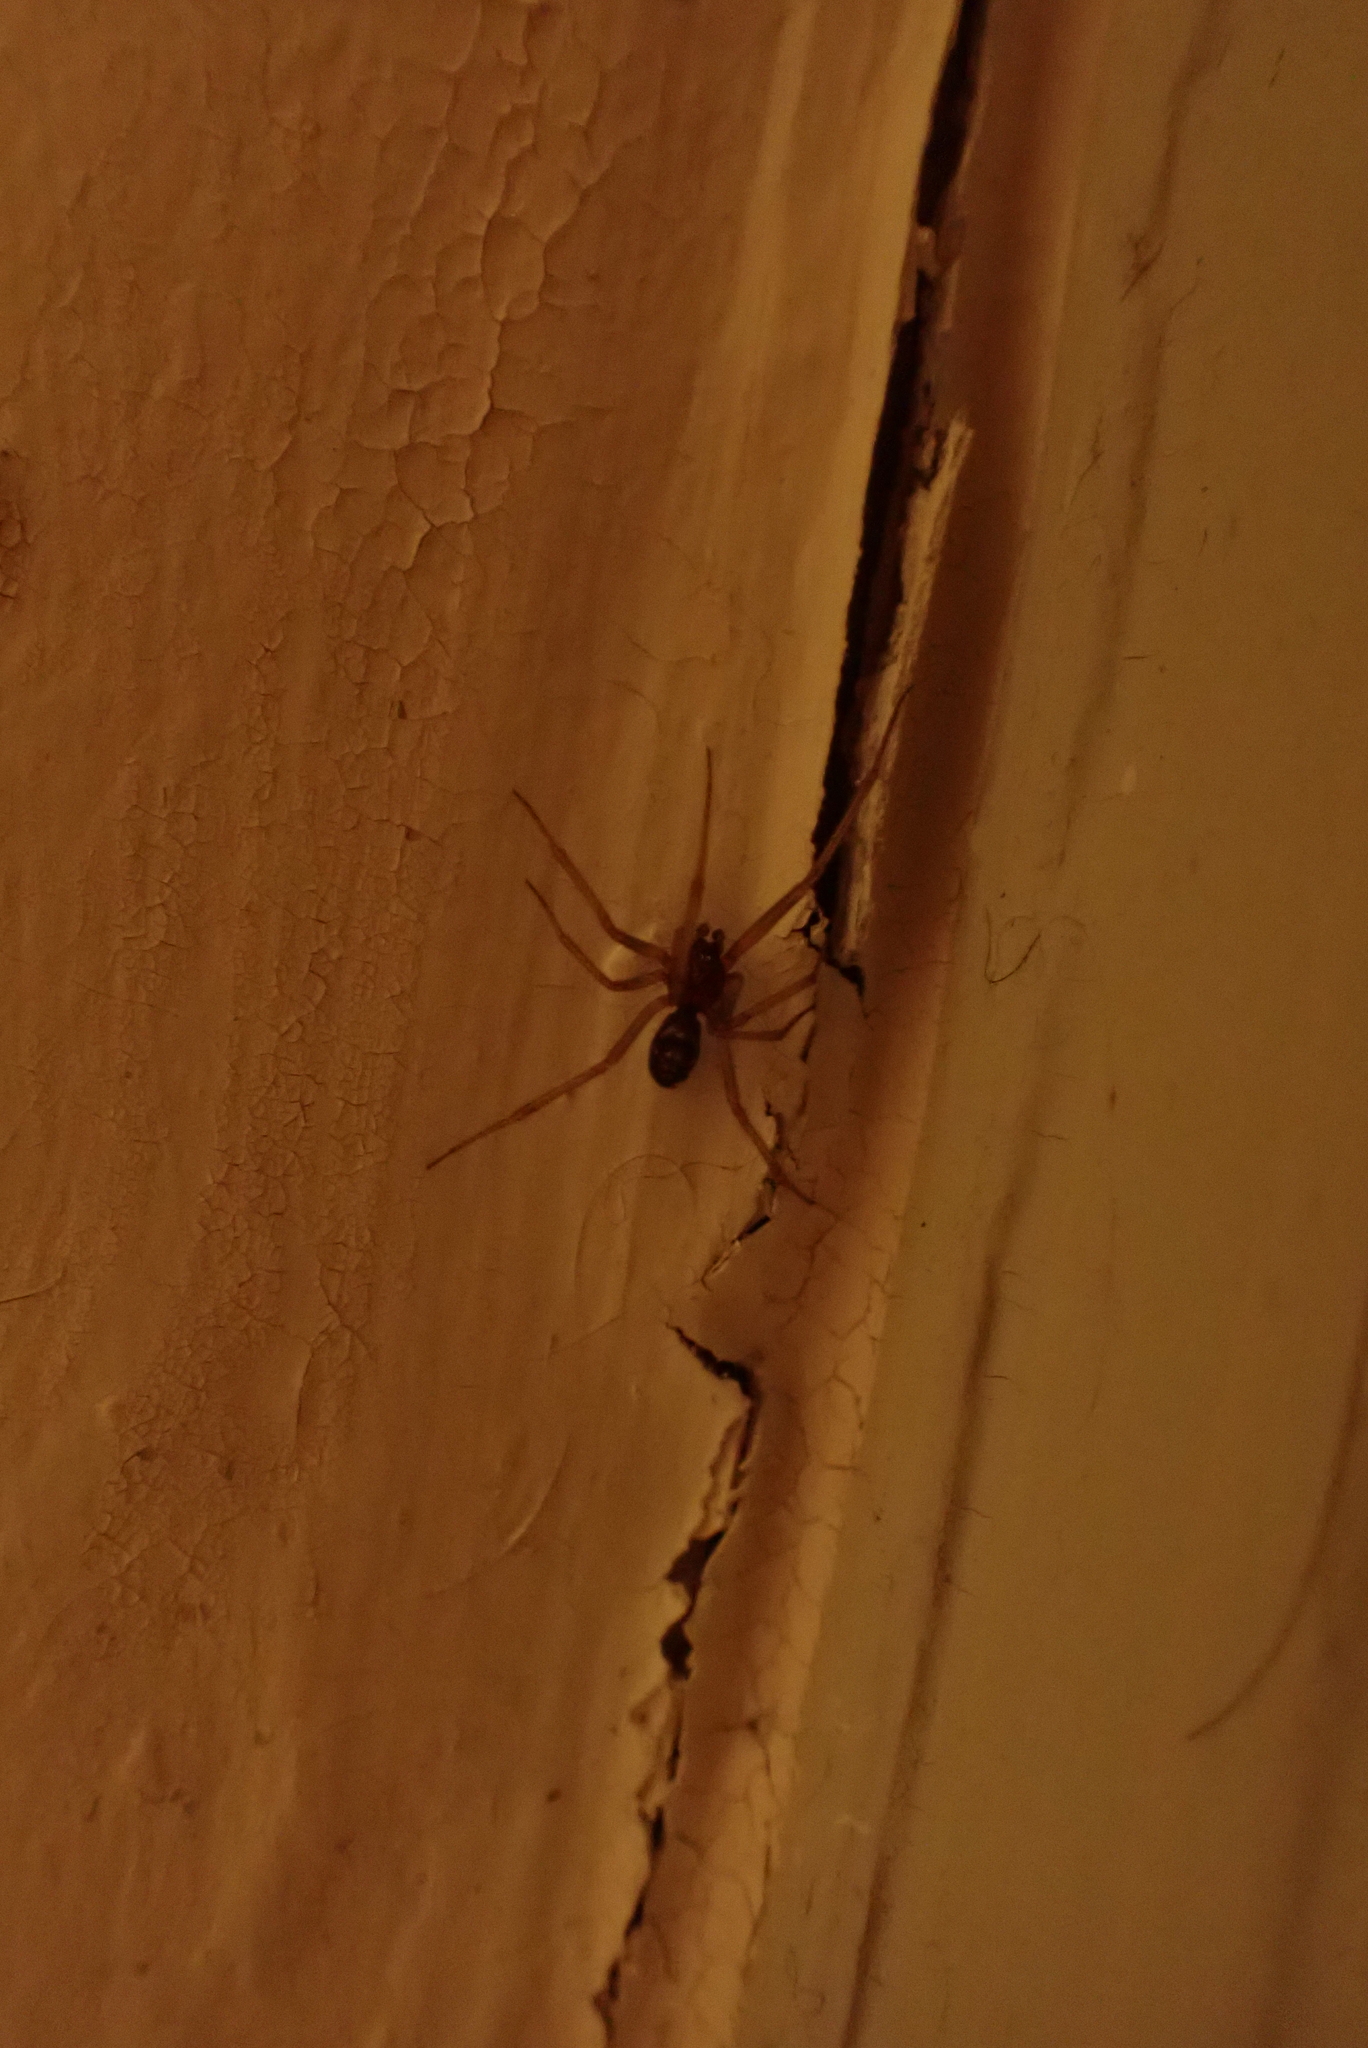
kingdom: Animalia
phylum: Arthropoda
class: Arachnida
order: Araneae
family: Theridiidae
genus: Steatoda
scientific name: Steatoda grossa
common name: False black widow
